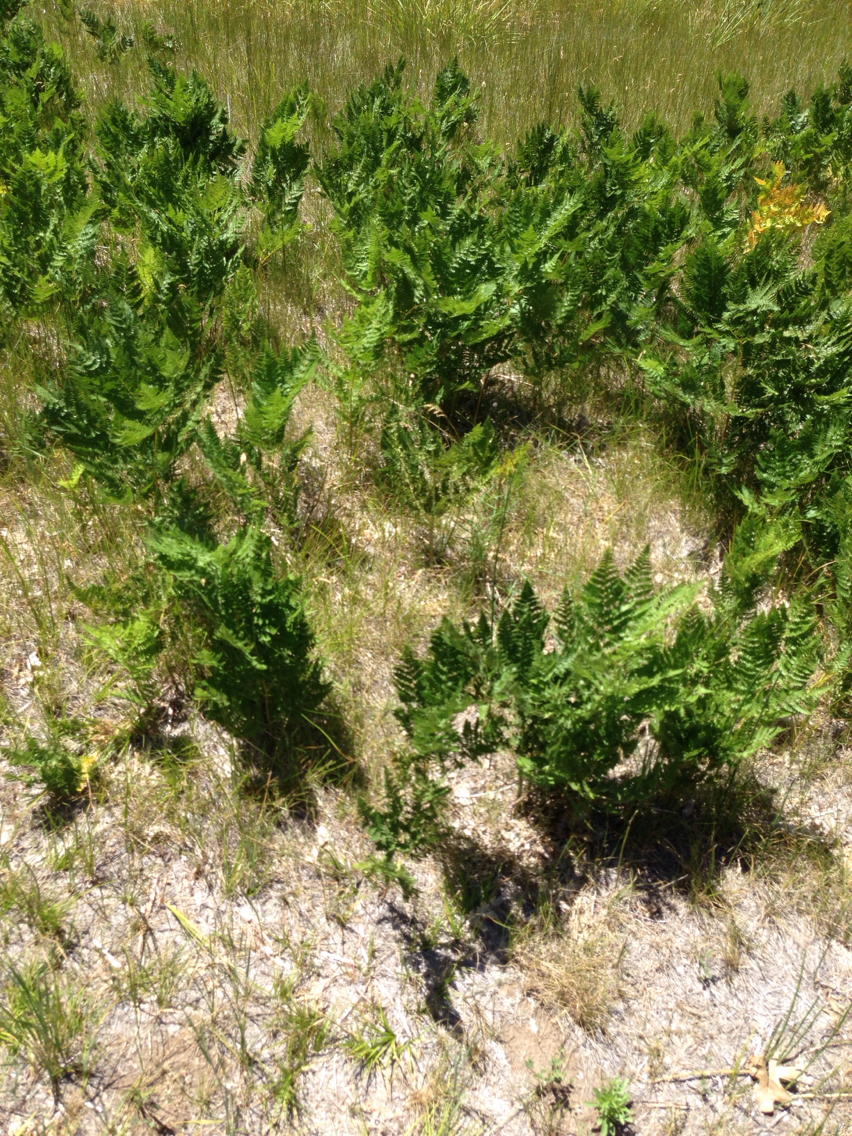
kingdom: Plantae
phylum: Tracheophyta
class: Polypodiopsida
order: Polypodiales
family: Dennstaedtiaceae
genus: Pteridium
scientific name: Pteridium aquilinum
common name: Bracken
